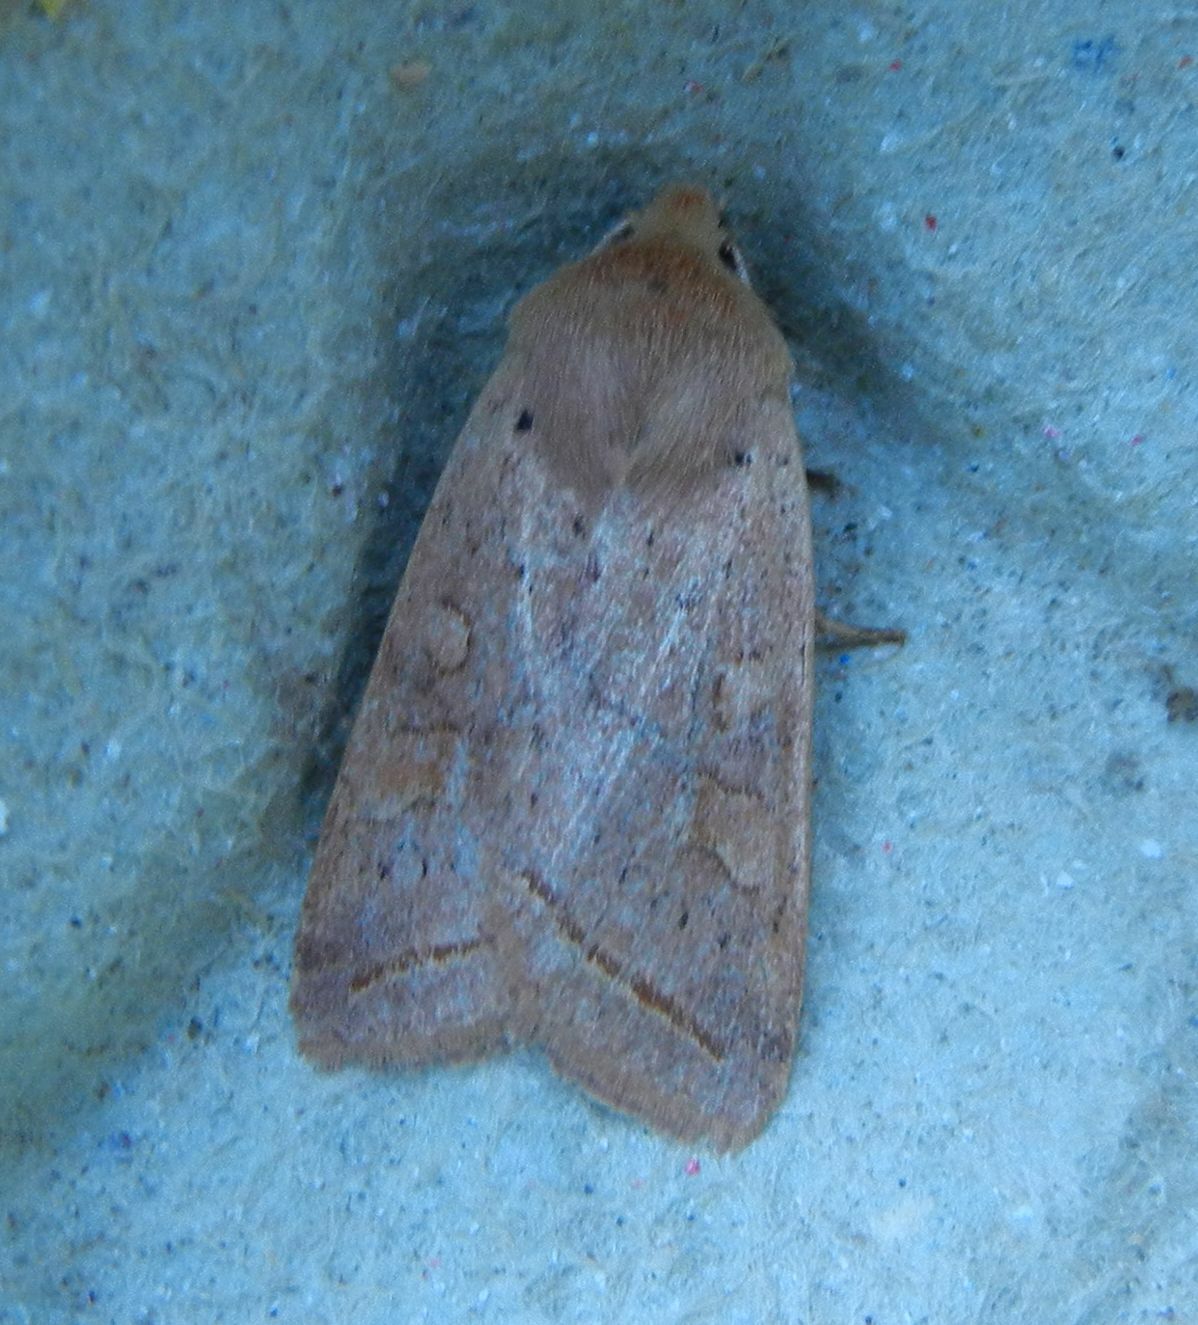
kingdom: Animalia
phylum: Arthropoda
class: Insecta
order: Lepidoptera
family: Noctuidae
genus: Agrochola
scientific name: Agrochola macilenta
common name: Yellow-line quaker
